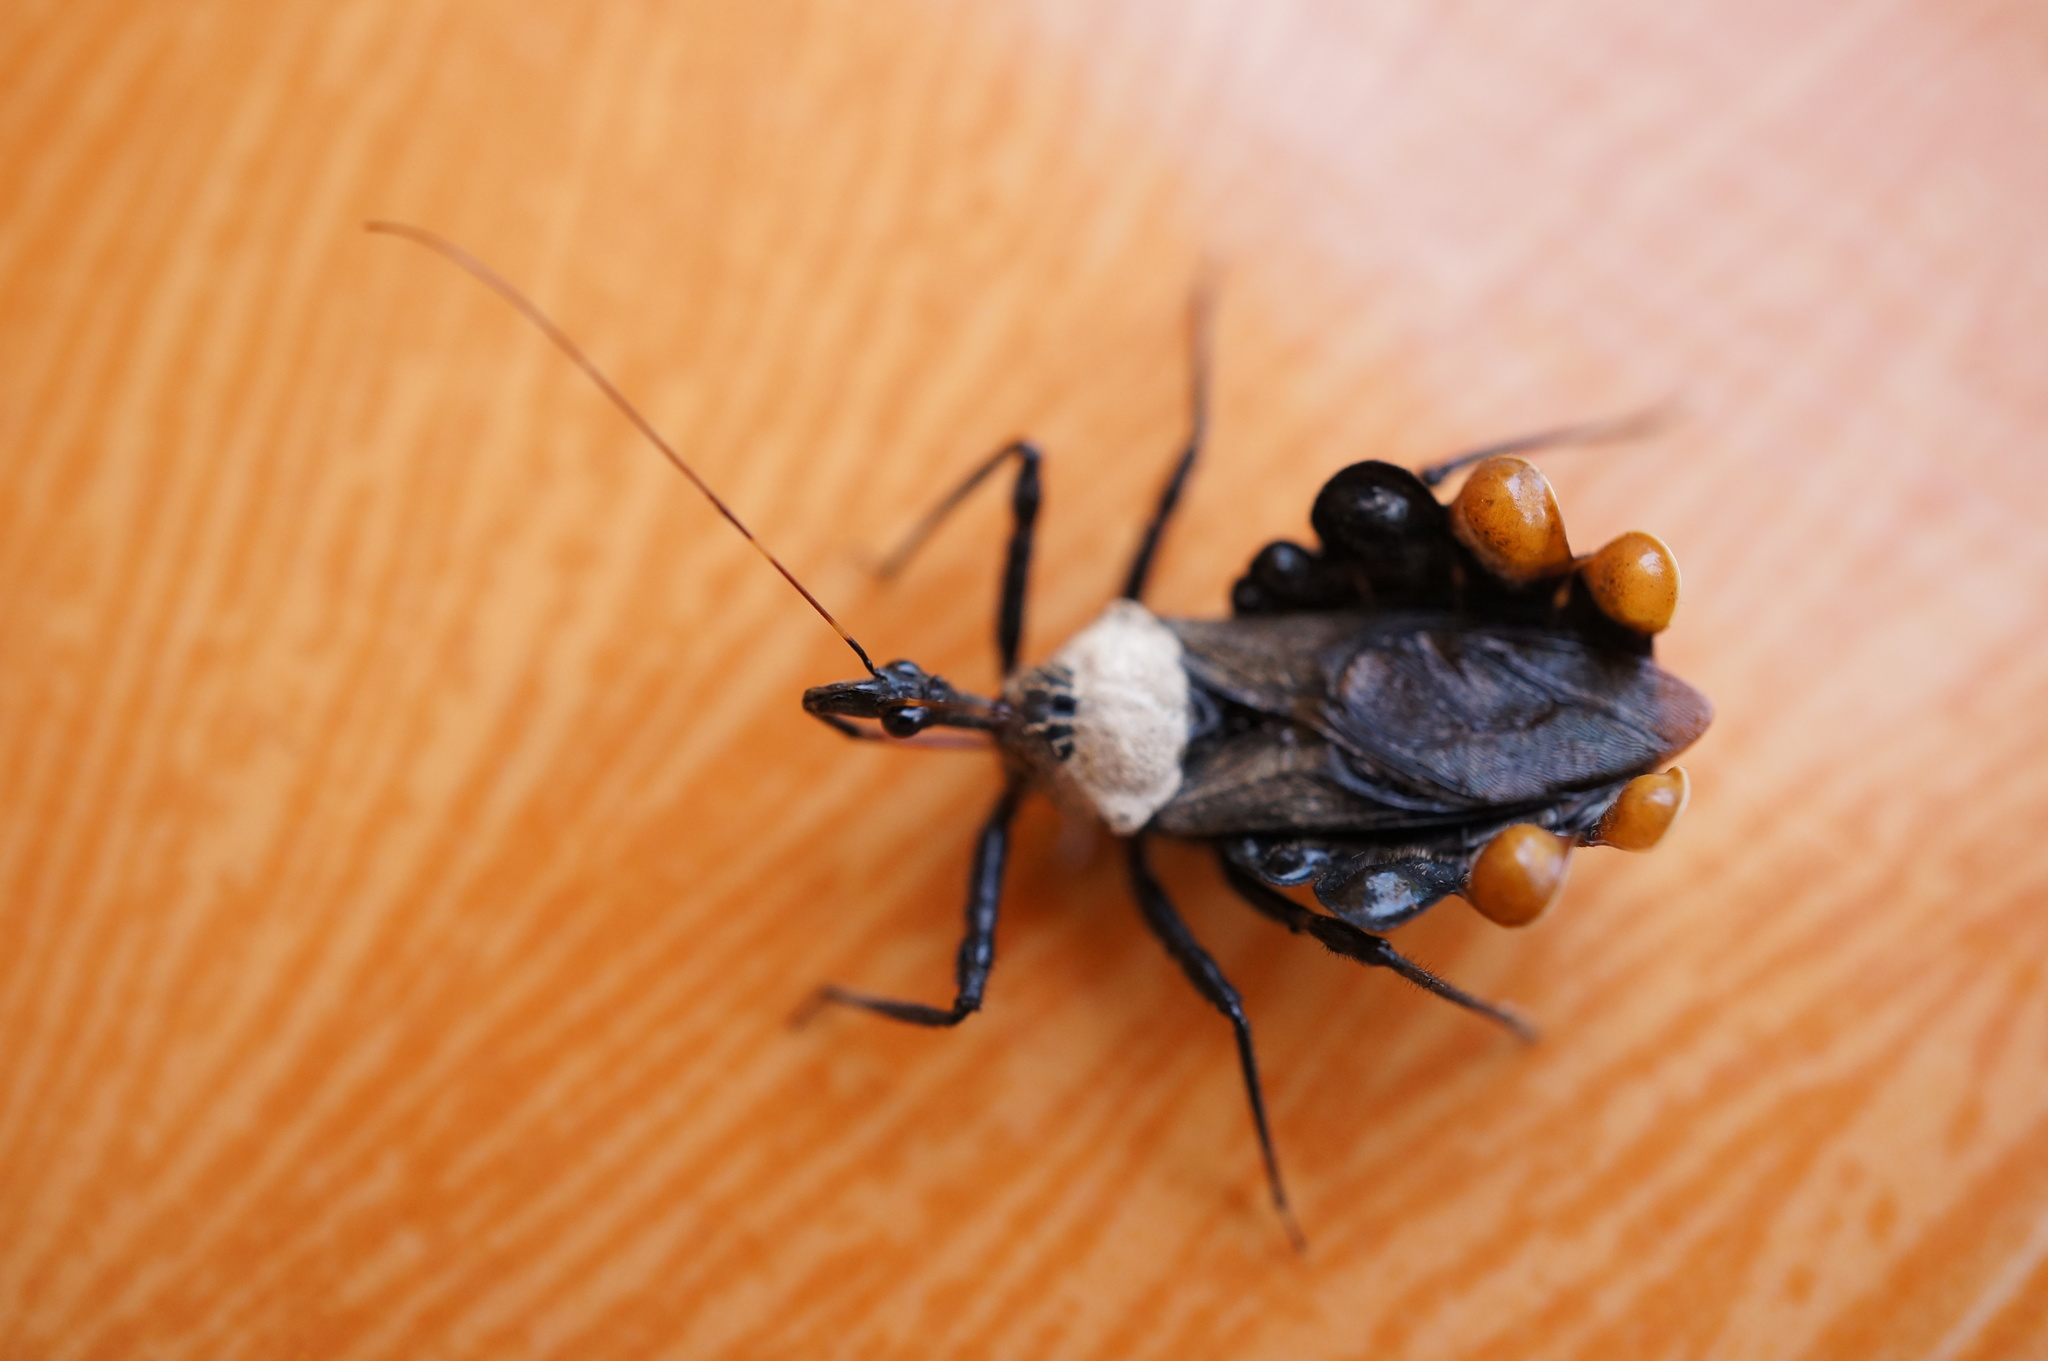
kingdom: Animalia
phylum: Arthropoda
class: Insecta
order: Hemiptera
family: Reduviidae
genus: Yolinus
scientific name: Yolinus mouhoti
